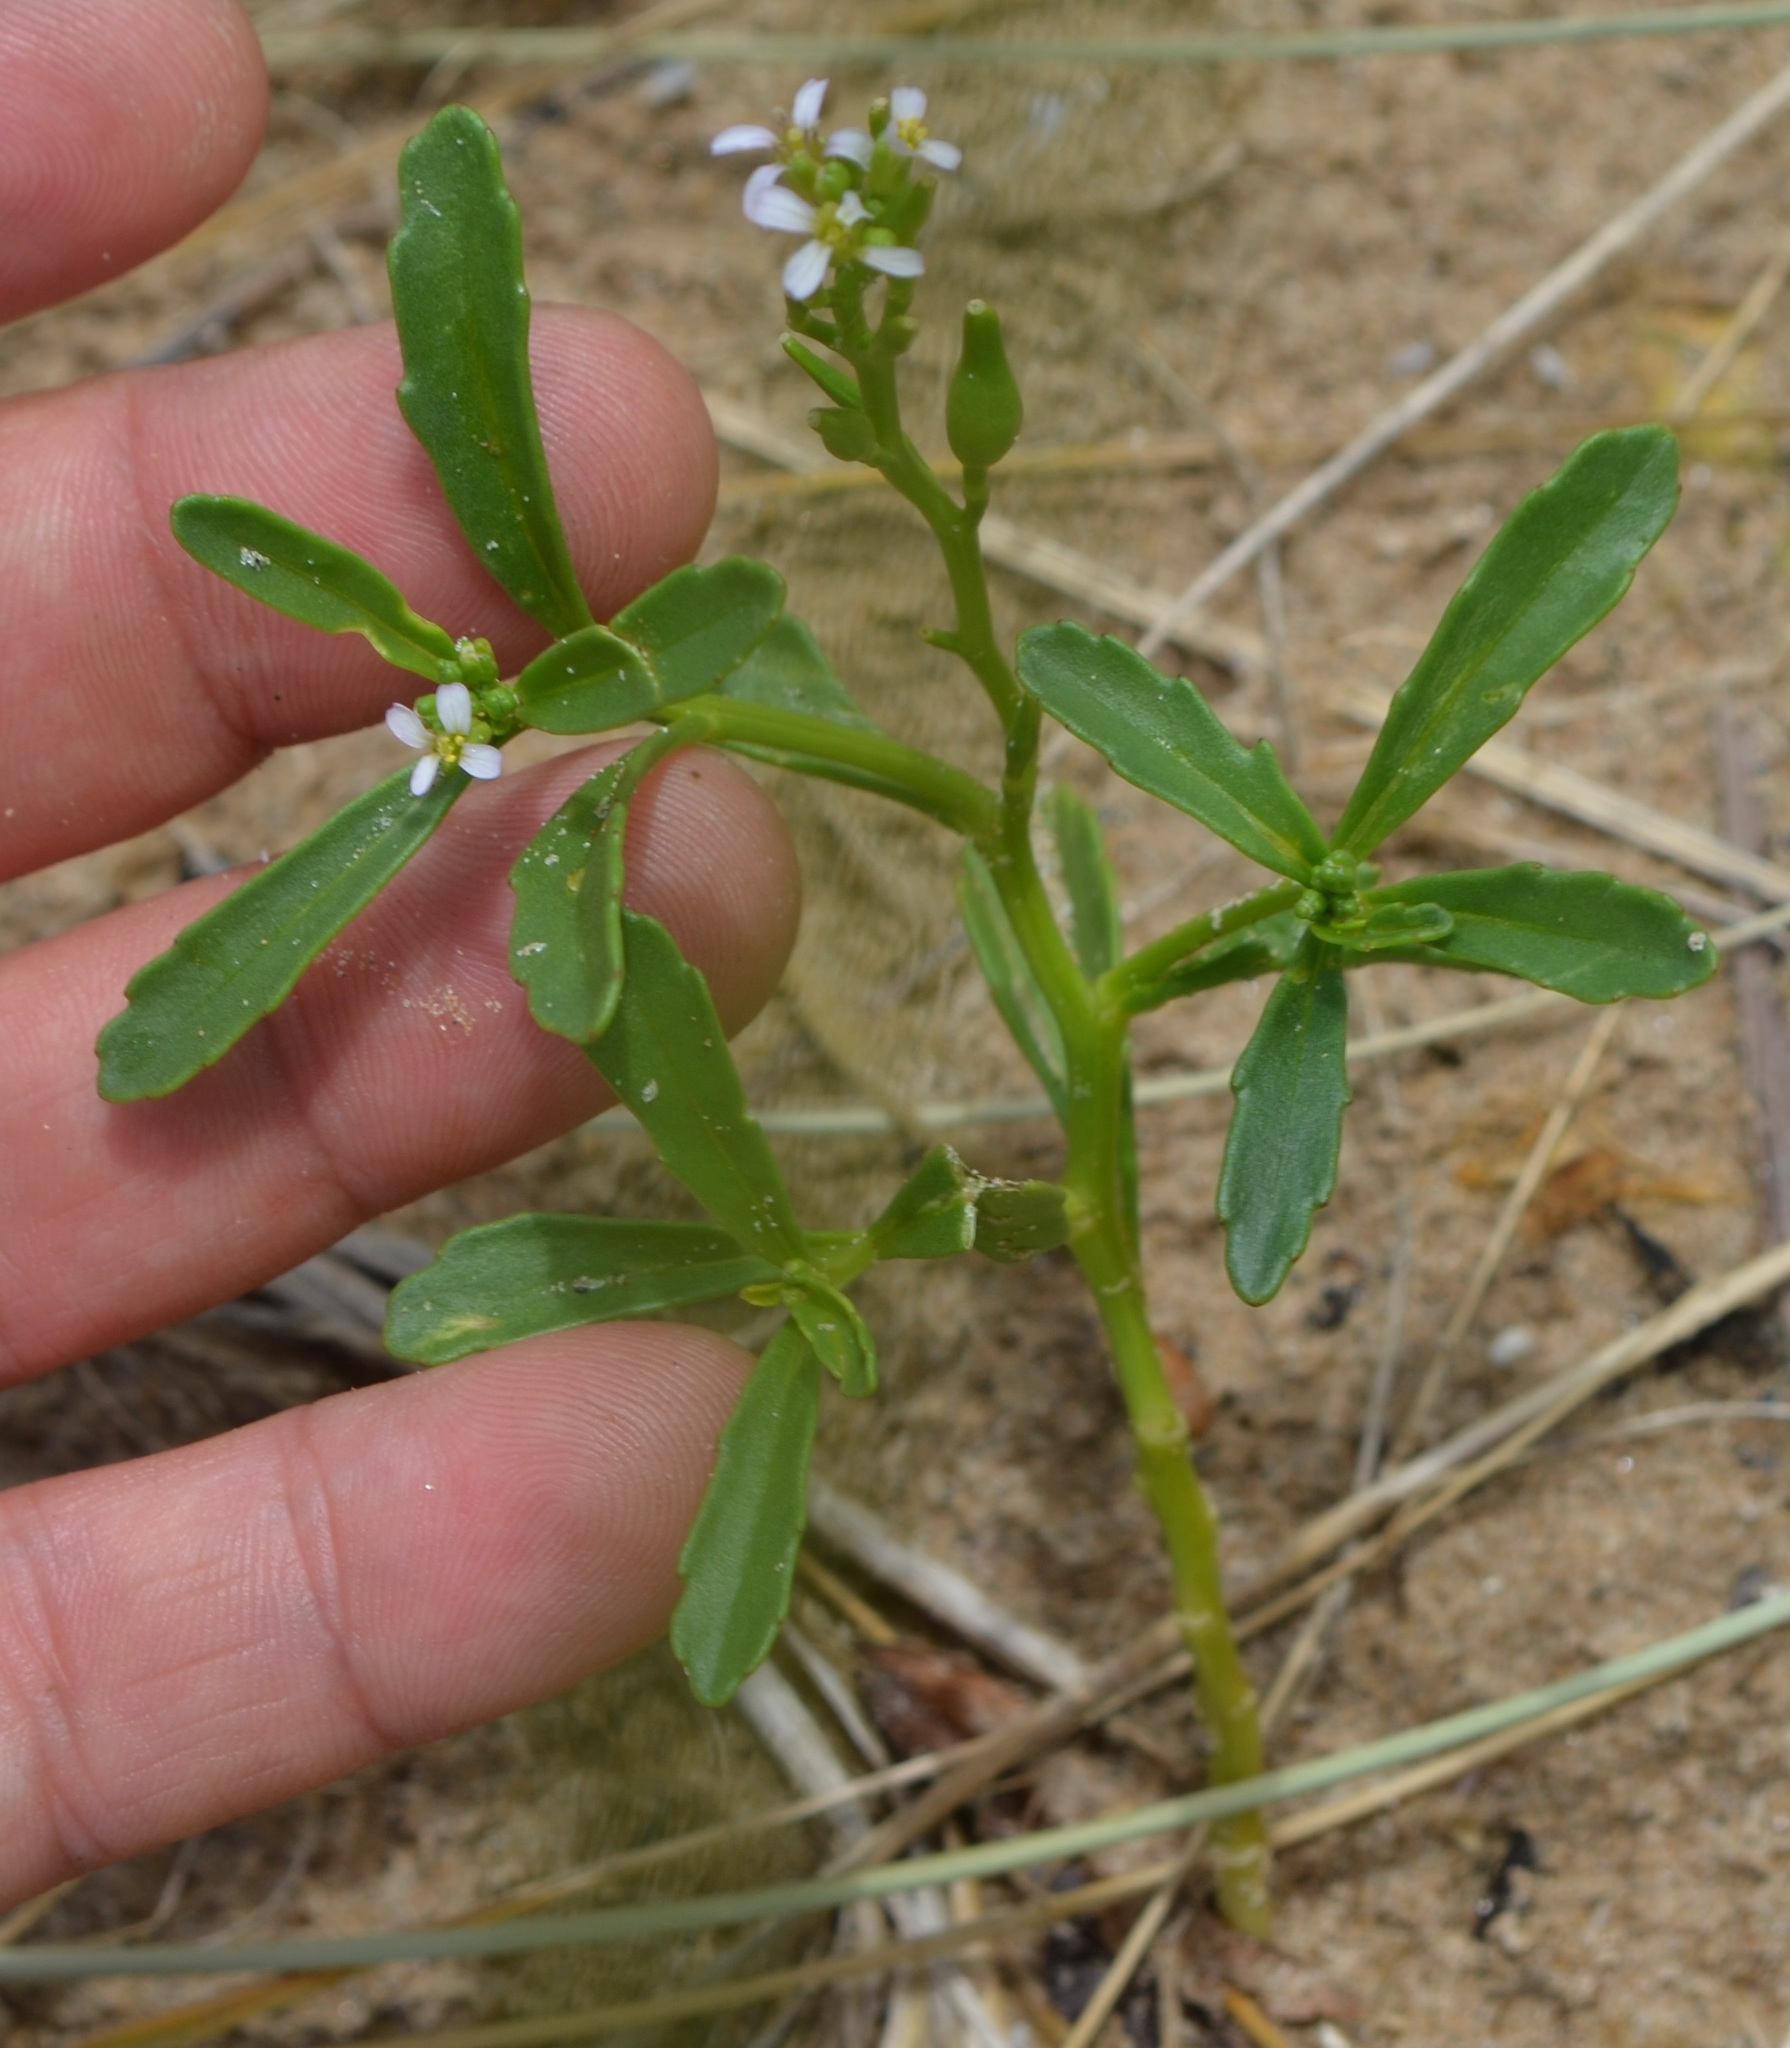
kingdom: Plantae
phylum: Tracheophyta
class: Magnoliopsida
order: Brassicales
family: Brassicaceae
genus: Cakile
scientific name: Cakile edentula
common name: American sea rocket
